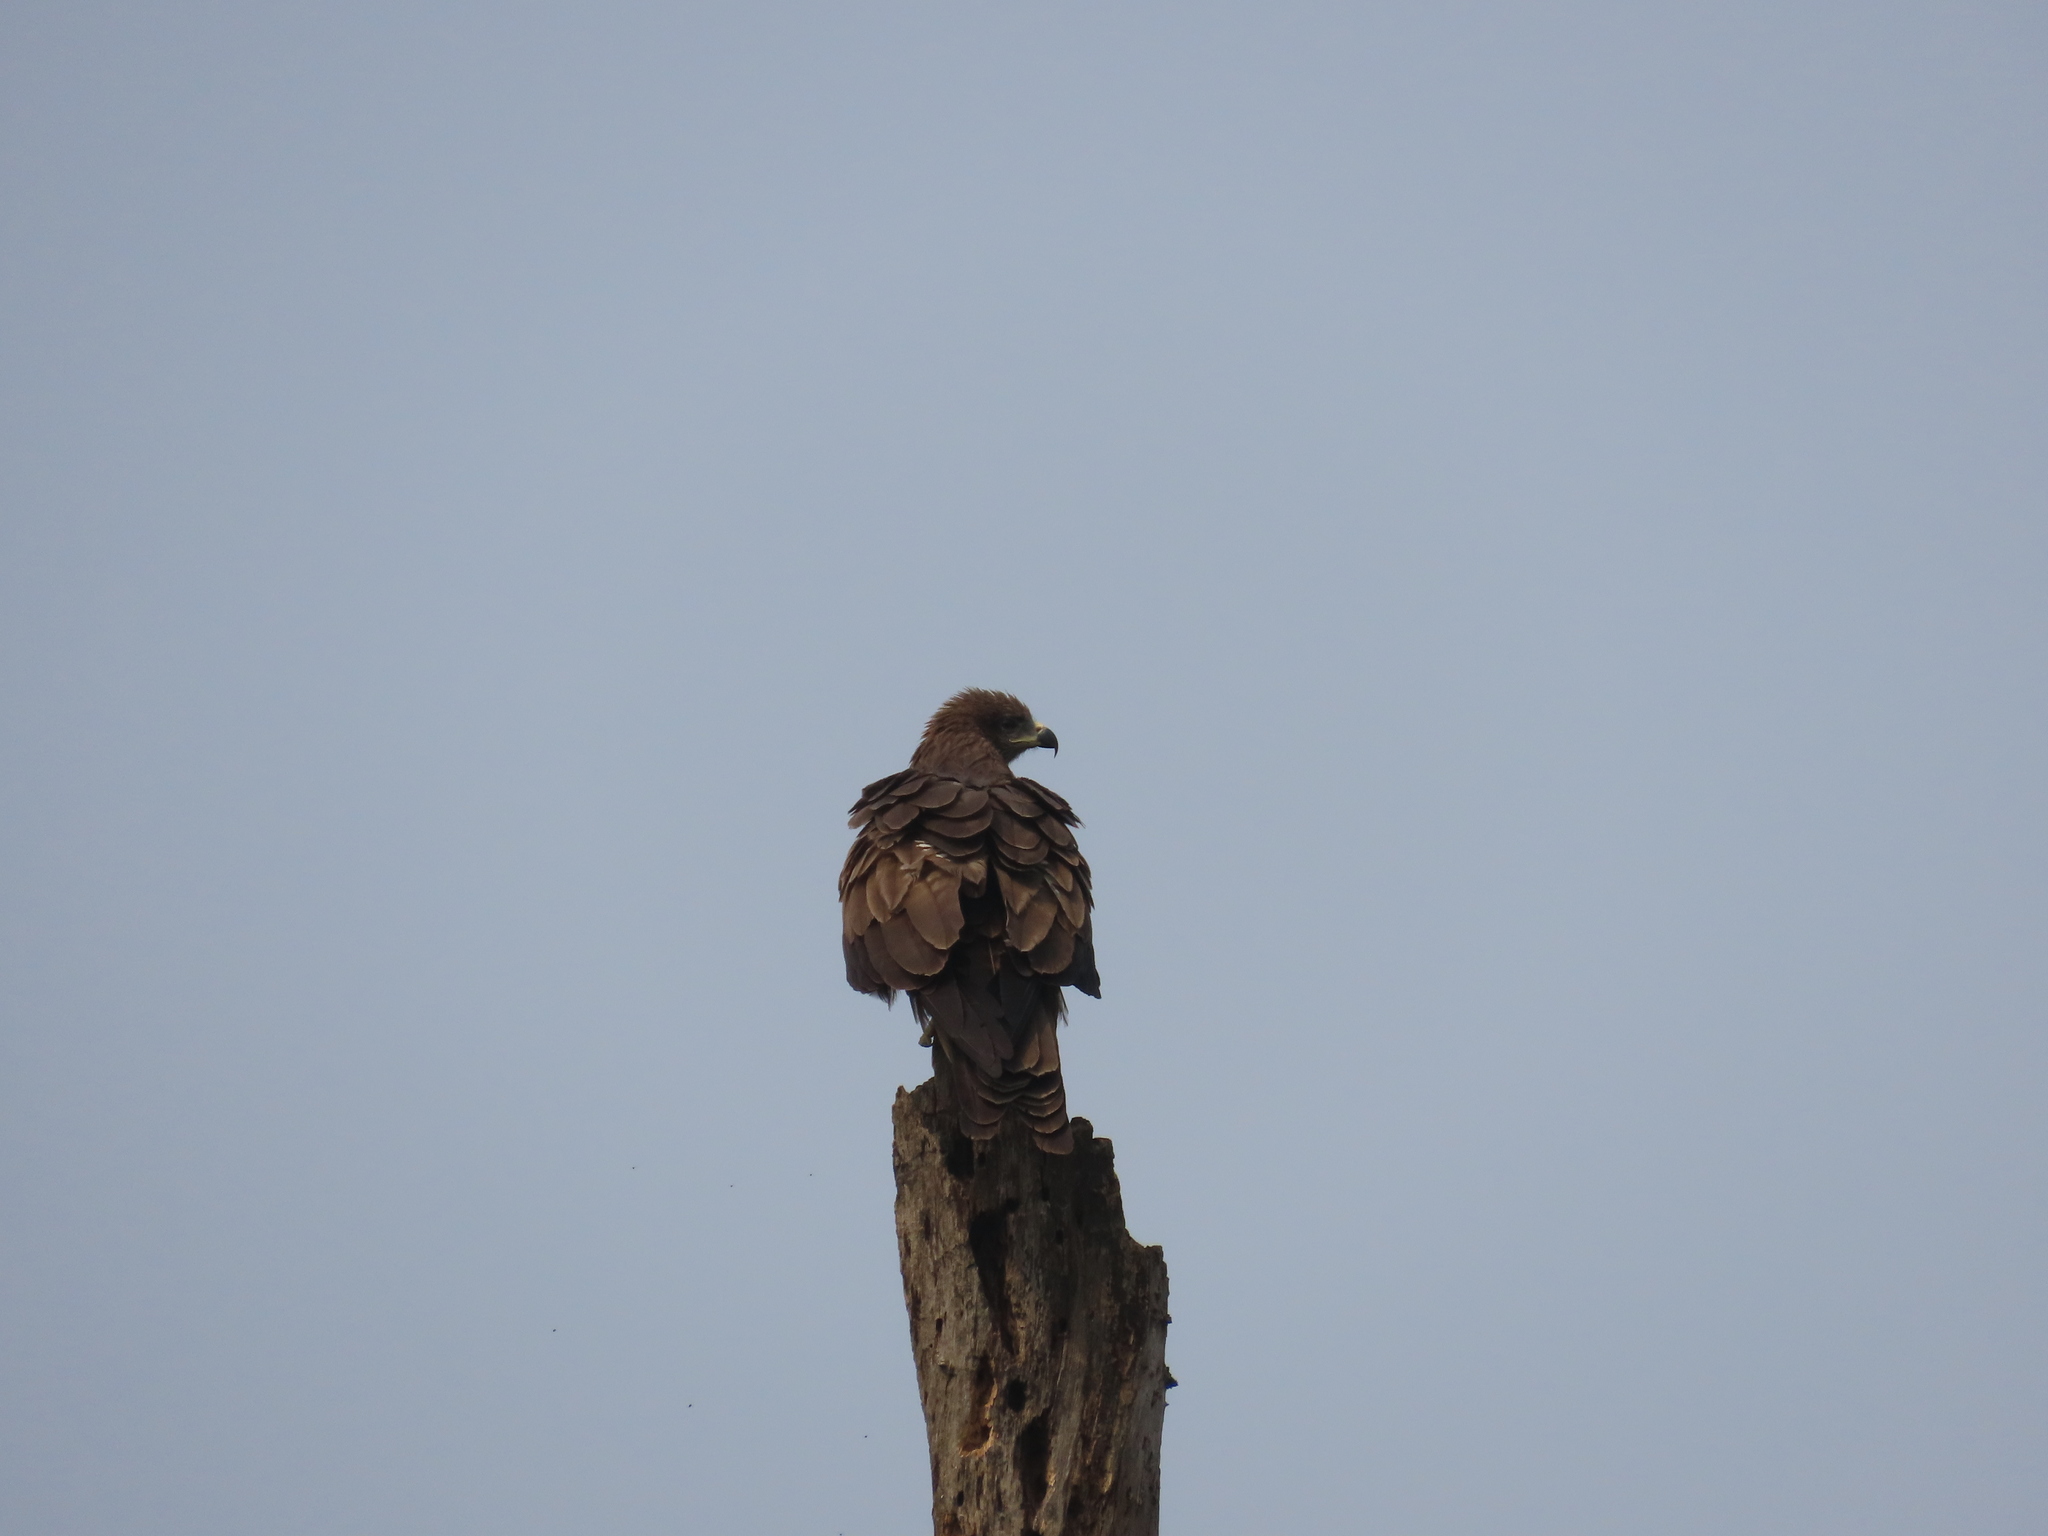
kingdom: Animalia
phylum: Chordata
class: Aves
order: Accipitriformes
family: Accipitridae
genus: Milvus
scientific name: Milvus migrans
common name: Black kite
